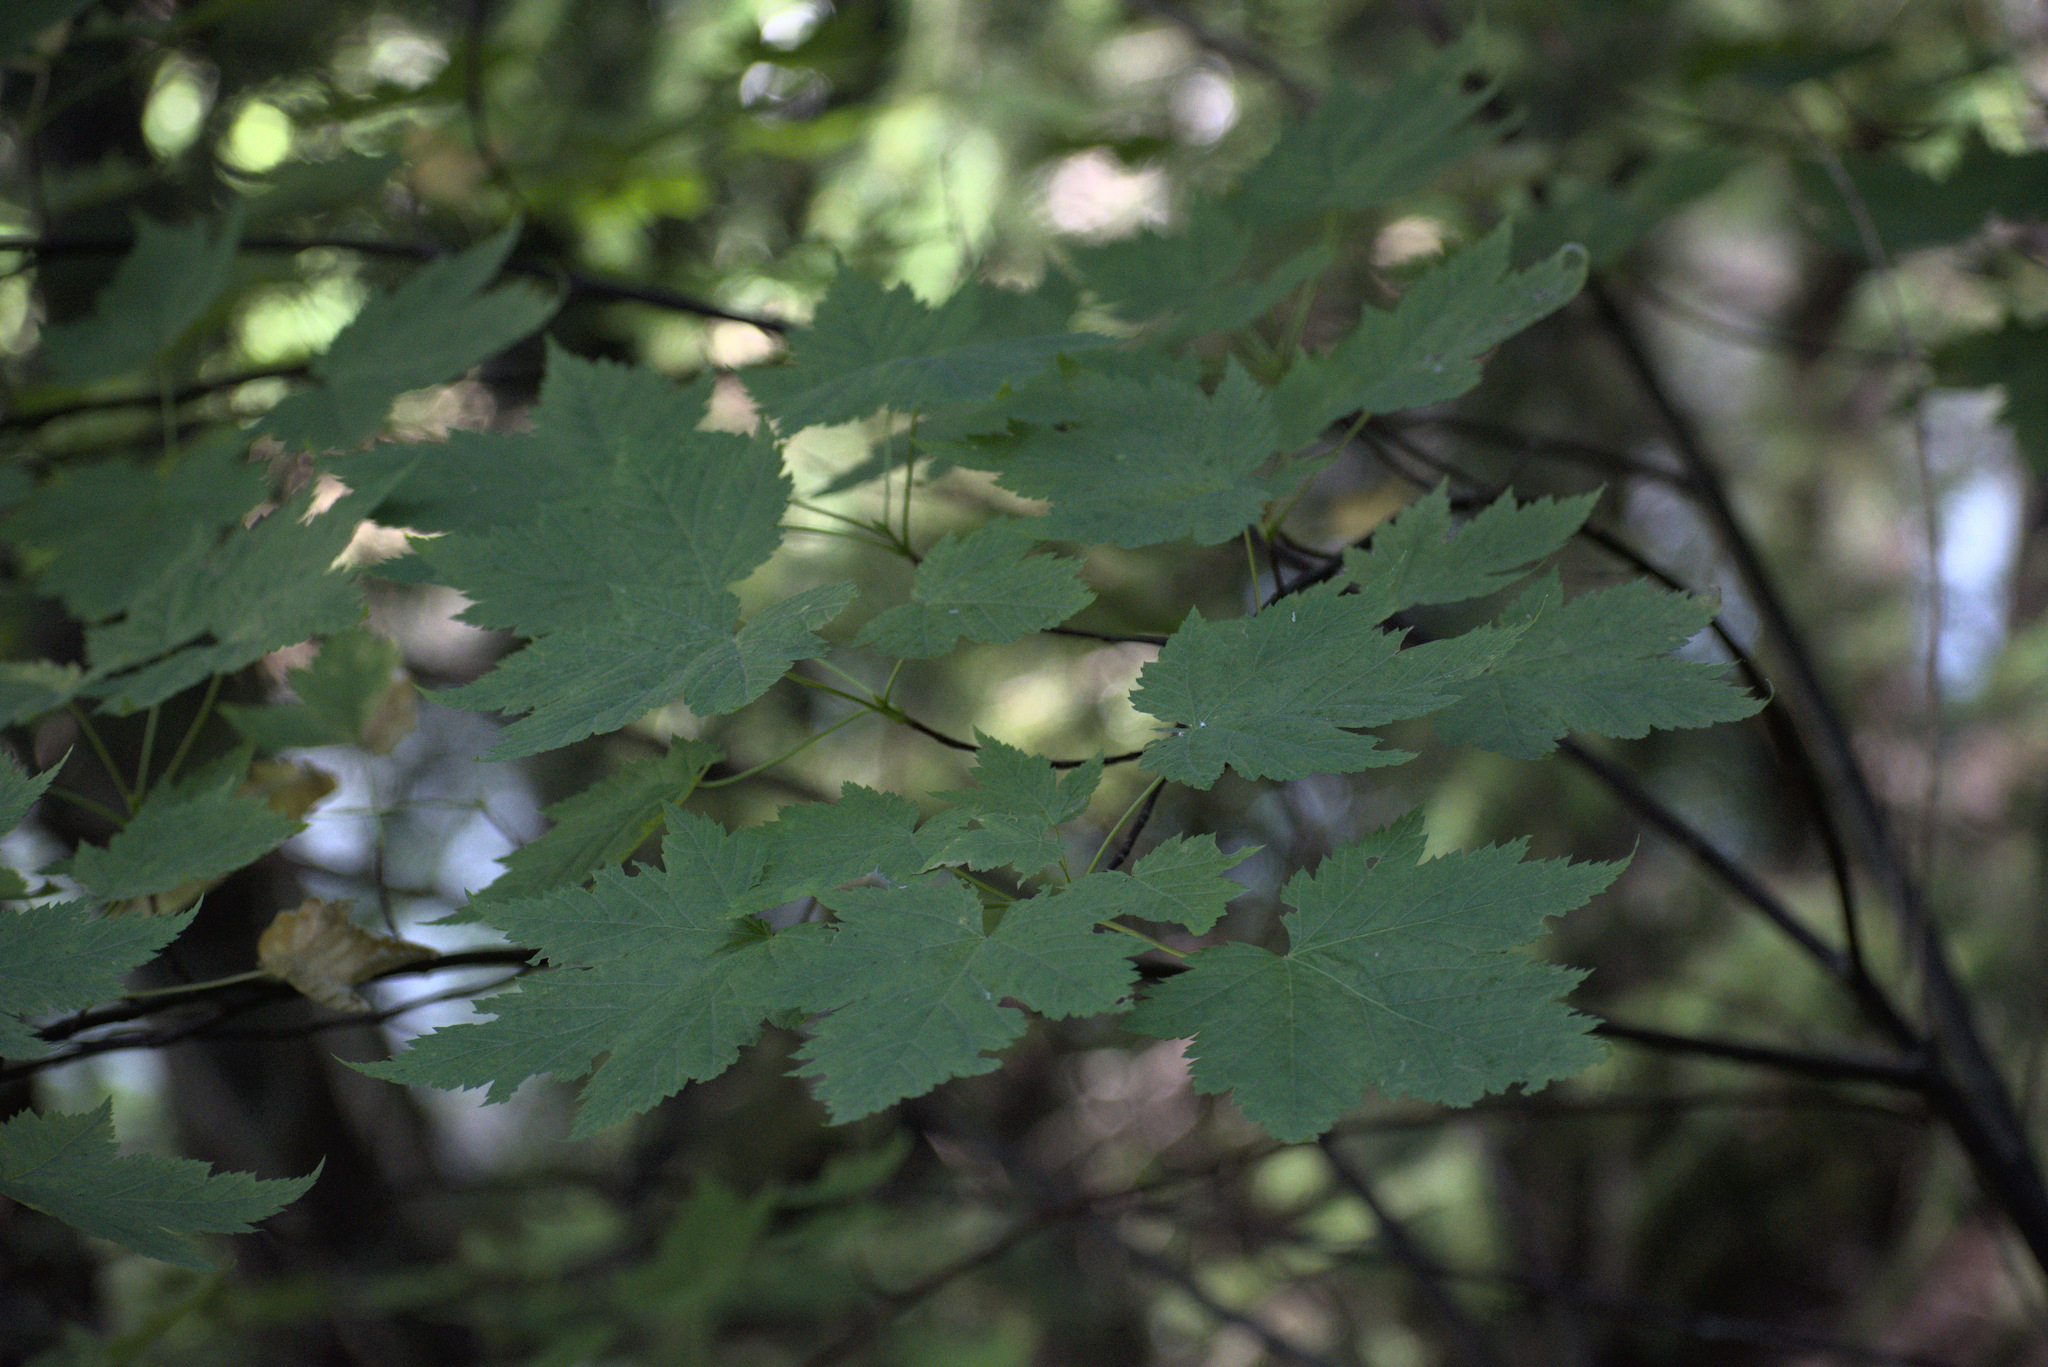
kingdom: Plantae
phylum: Tracheophyta
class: Magnoliopsida
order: Sapindales
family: Sapindaceae
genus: Acer
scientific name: Acer glabrum
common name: Rocky mountain maple
